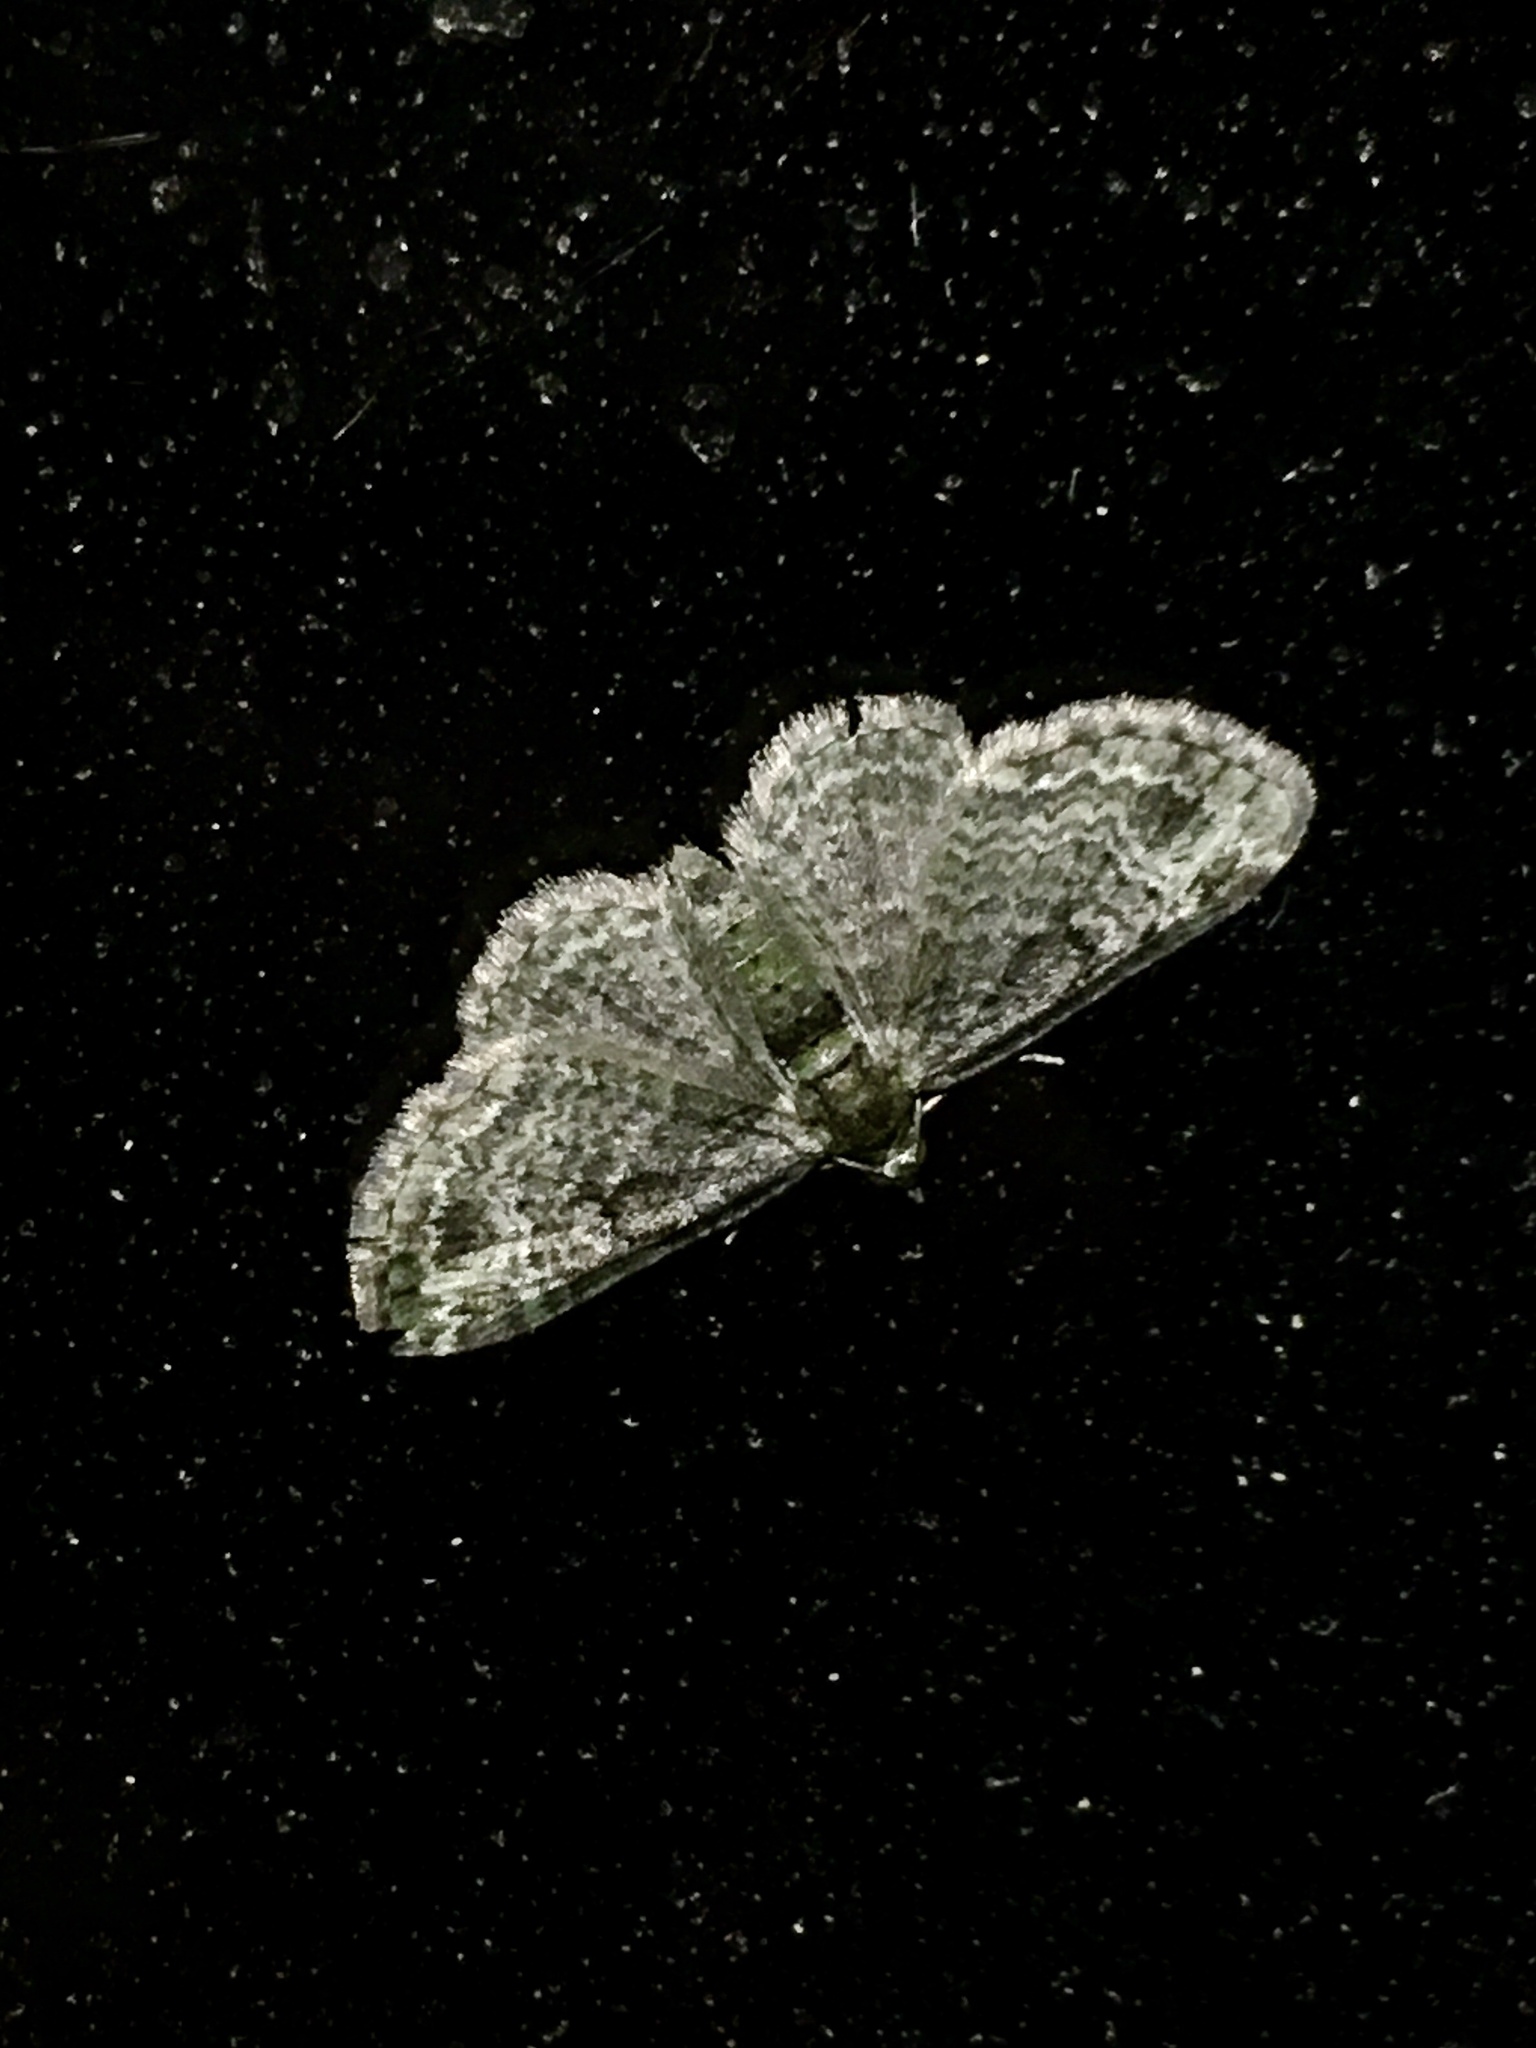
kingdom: Animalia
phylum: Arthropoda
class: Insecta
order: Lepidoptera
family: Geometridae
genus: Pasiphila
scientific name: Pasiphila rectangulata
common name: Green pug
